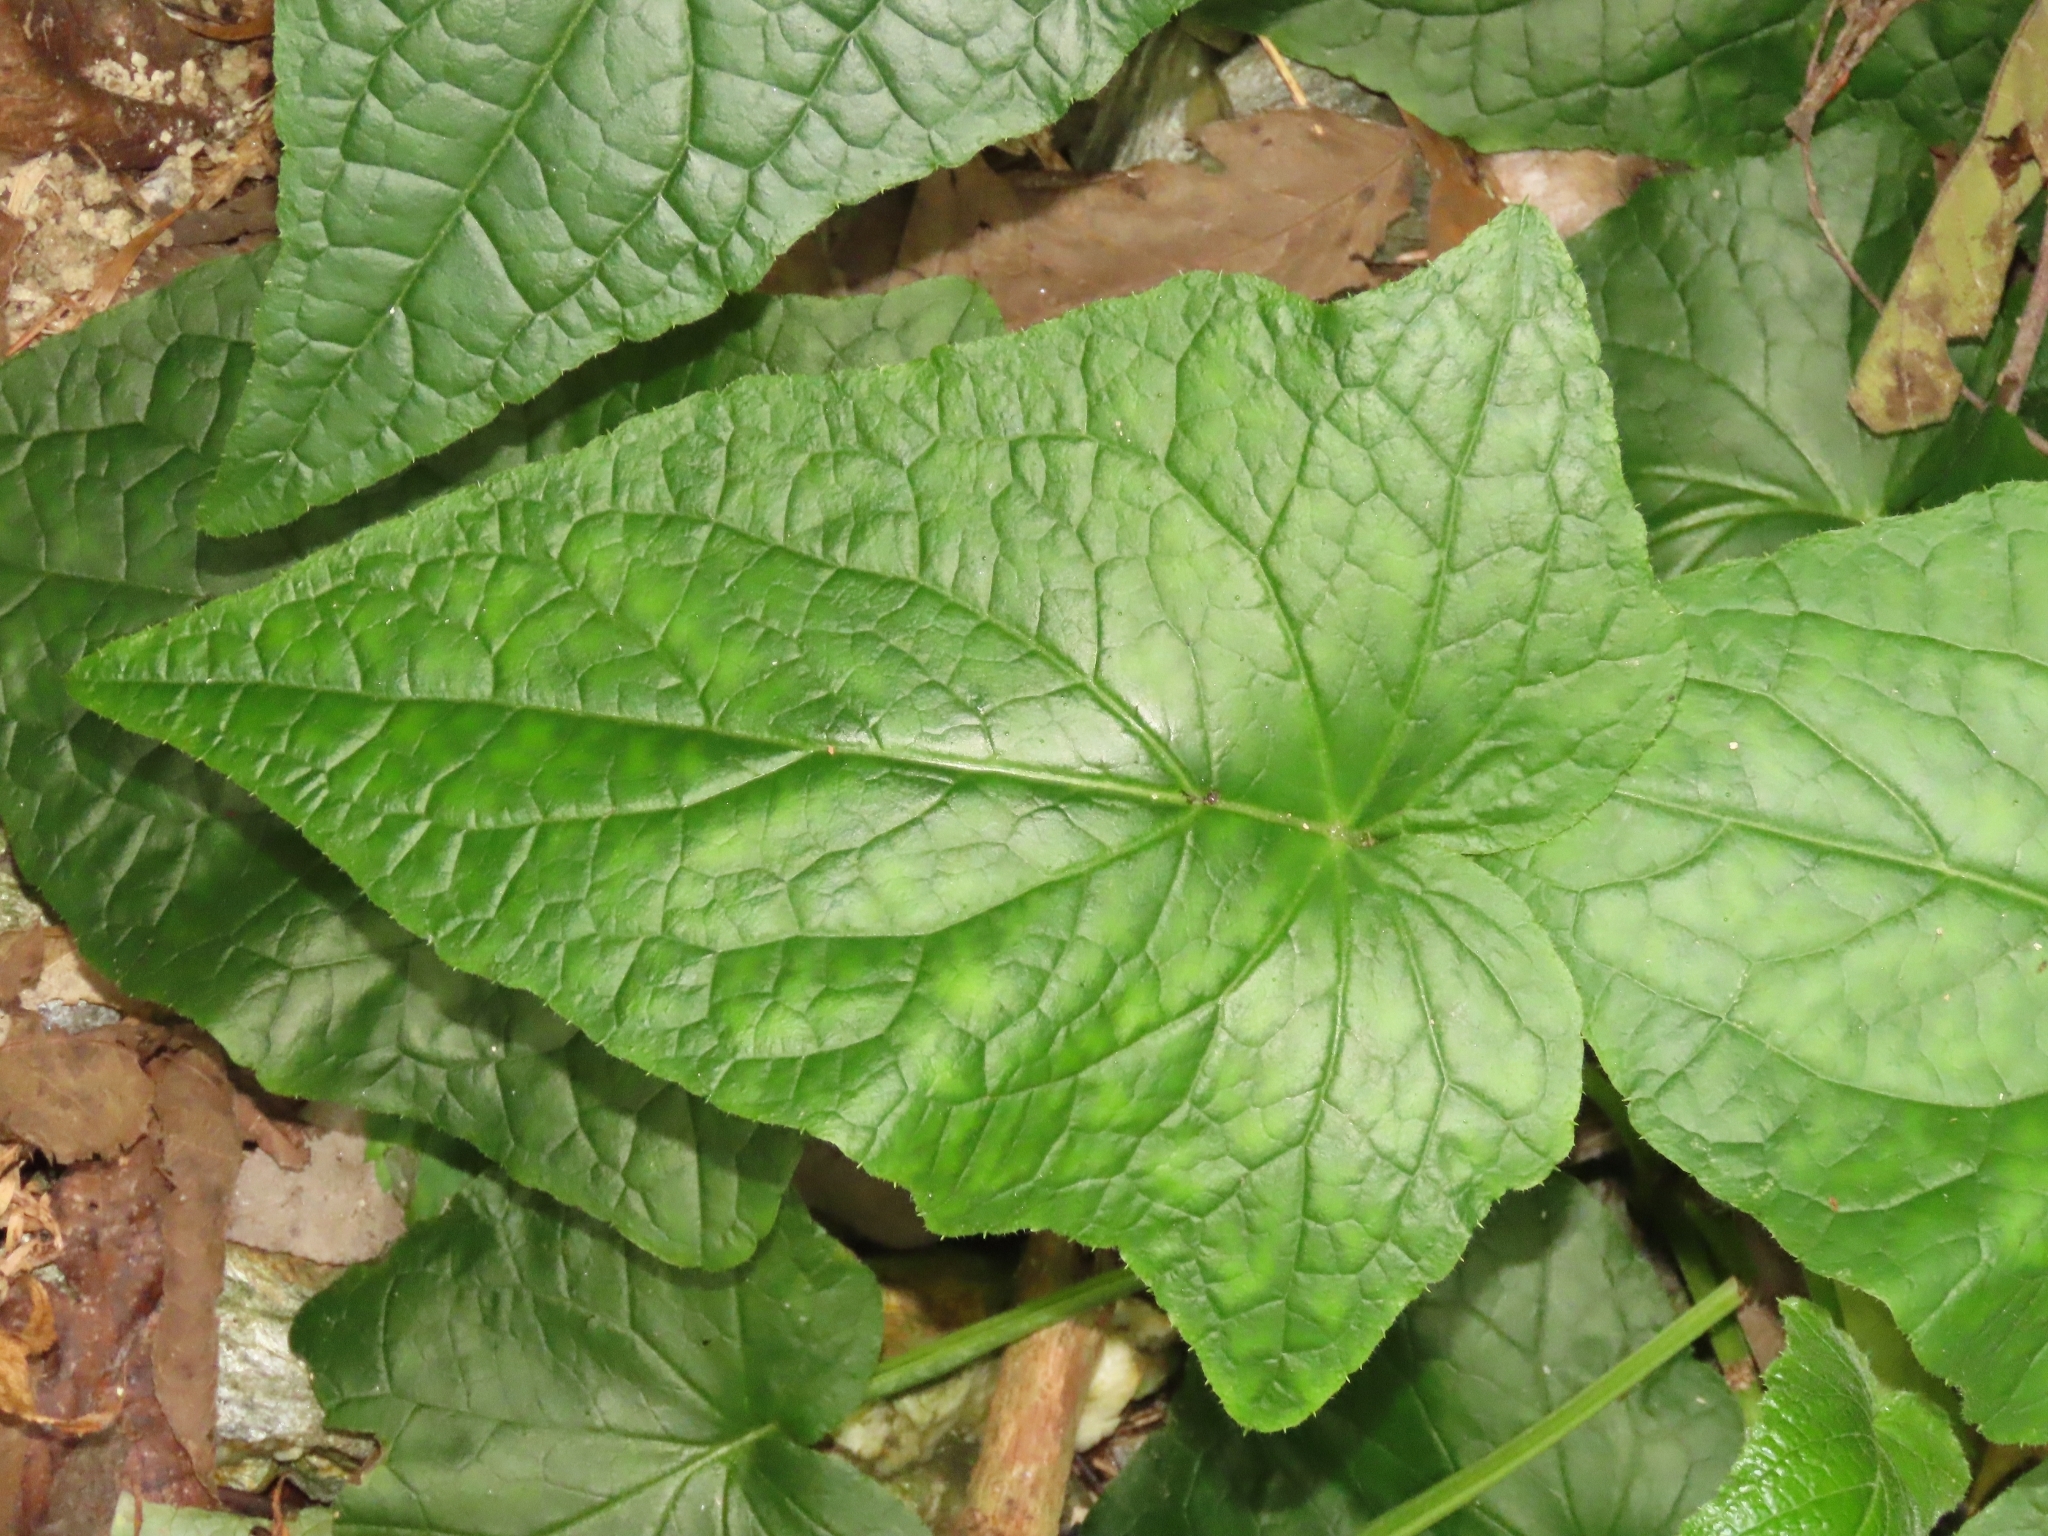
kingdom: Plantae
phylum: Tracheophyta
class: Magnoliopsida
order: Asterales
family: Asteraceae
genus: Paraprenanthes
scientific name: Paraprenanthes sororia
